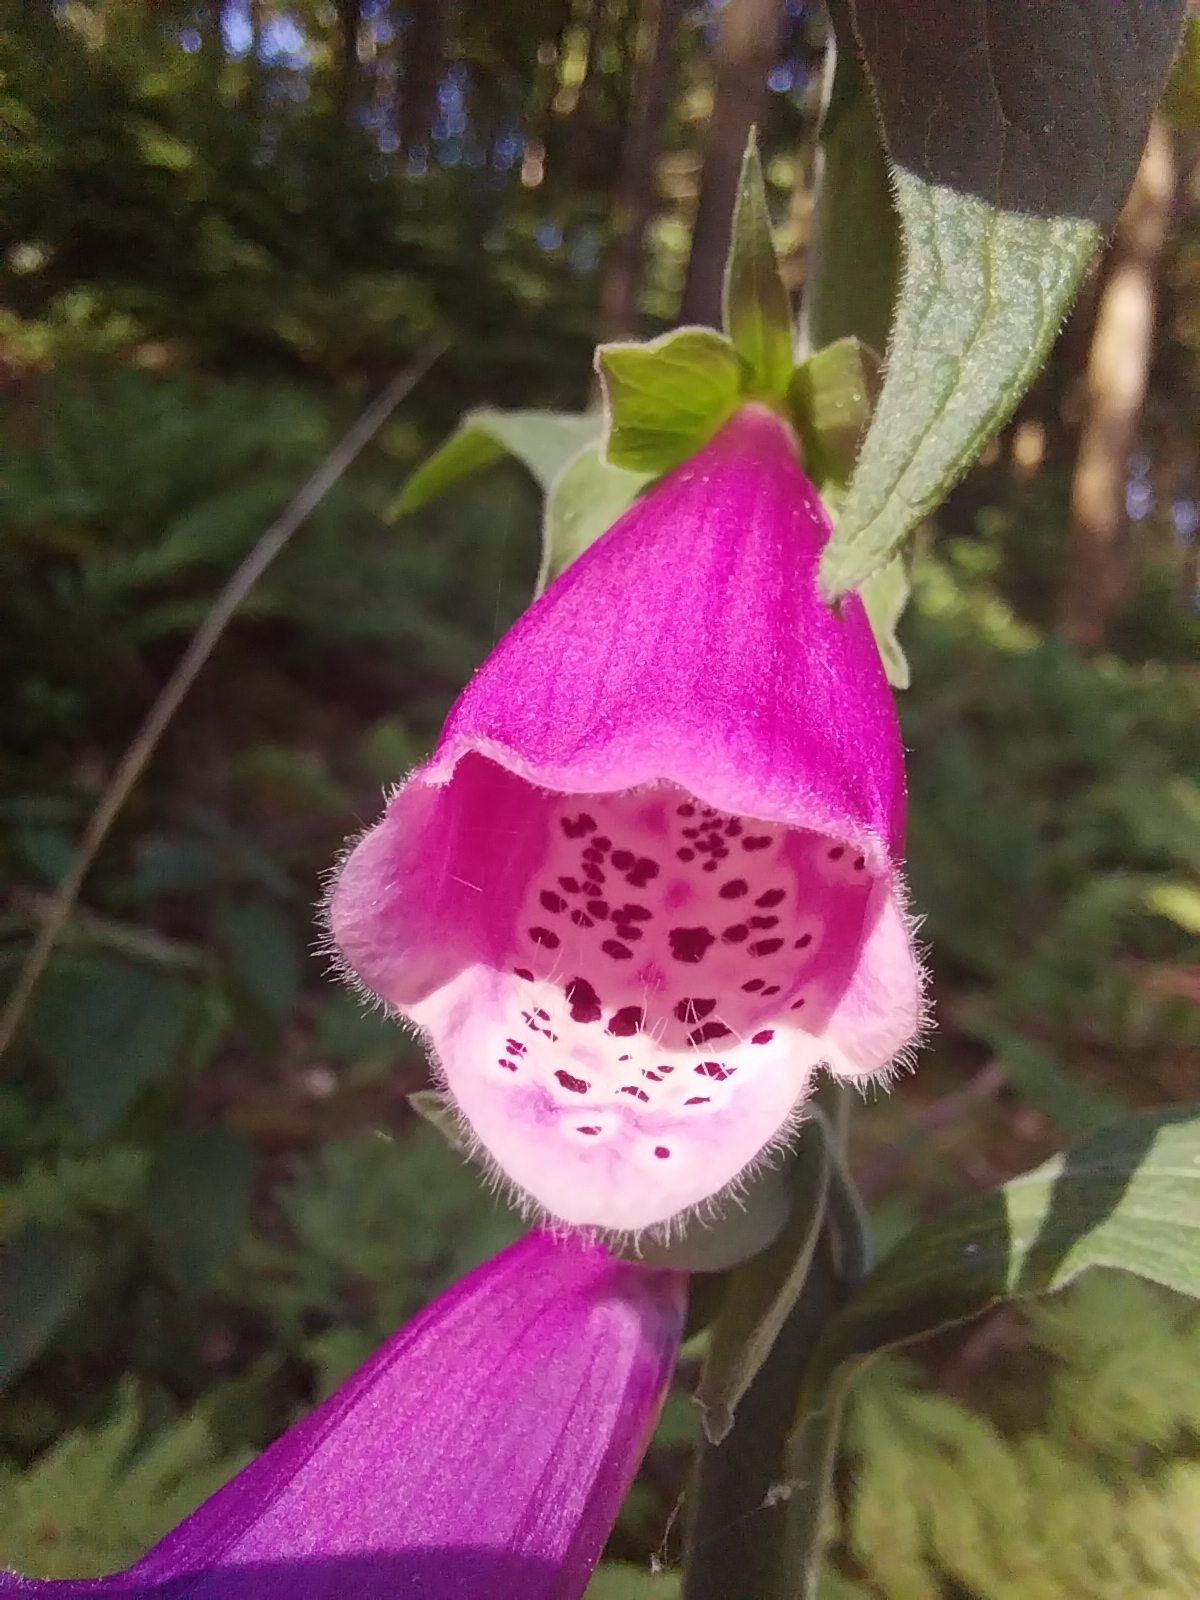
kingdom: Plantae
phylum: Tracheophyta
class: Magnoliopsida
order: Lamiales
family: Plantaginaceae
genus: Digitalis
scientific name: Digitalis purpurea
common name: Foxglove
